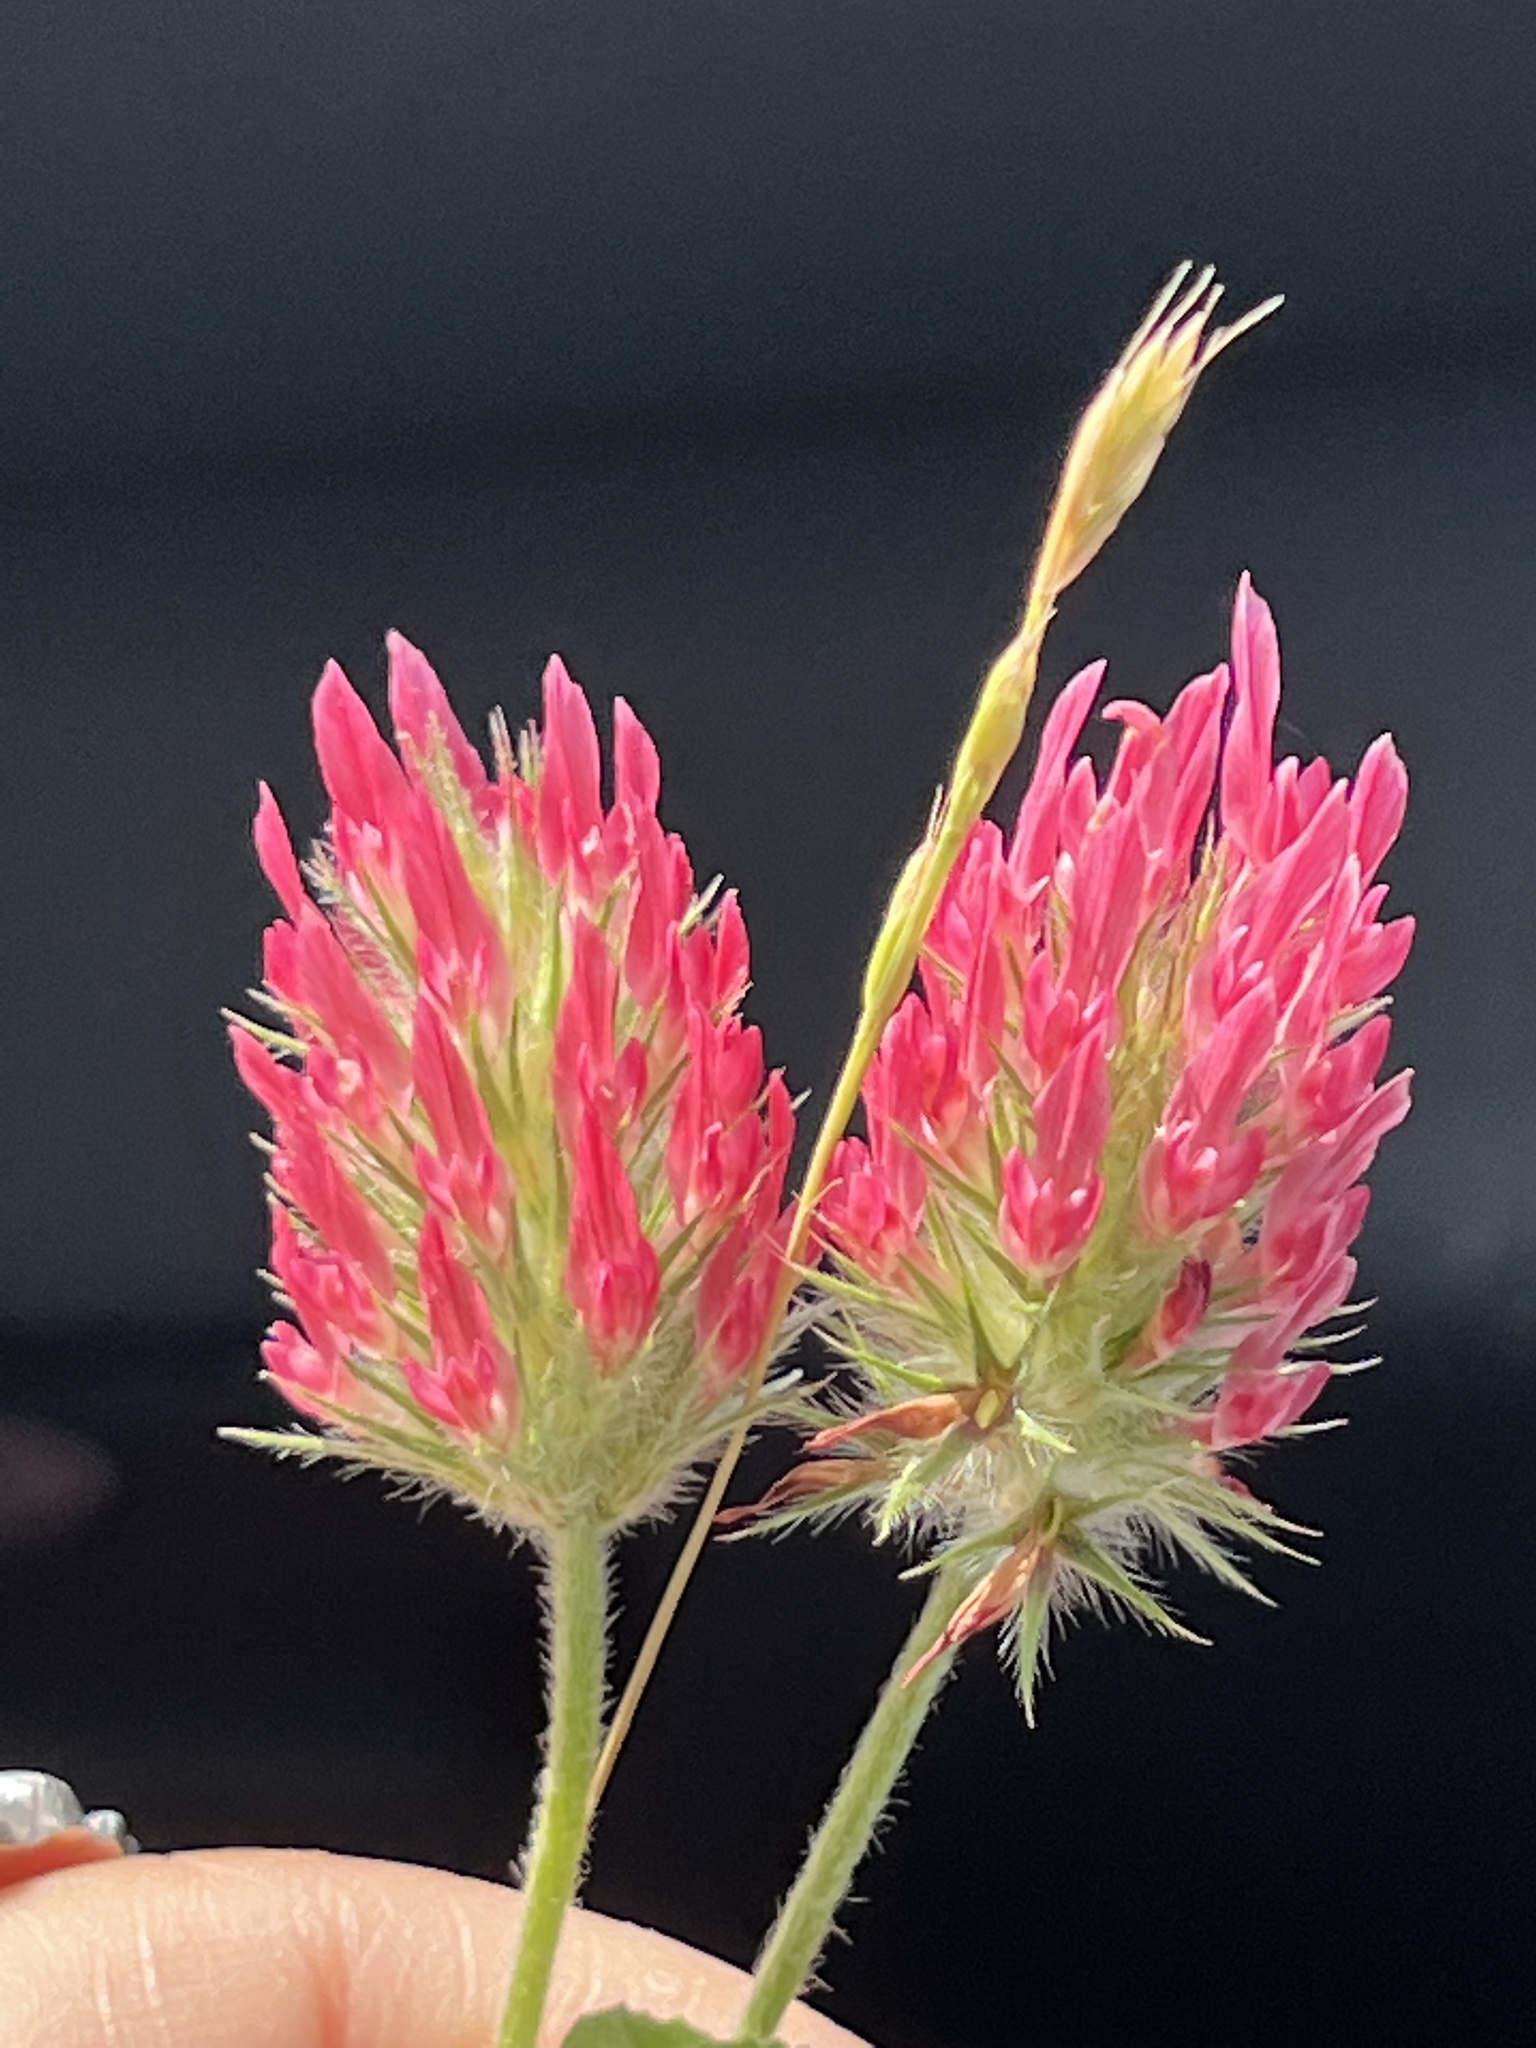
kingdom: Plantae
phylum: Tracheophyta
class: Magnoliopsida
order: Fabales
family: Fabaceae
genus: Trifolium
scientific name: Trifolium incarnatum
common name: Crimson clover
